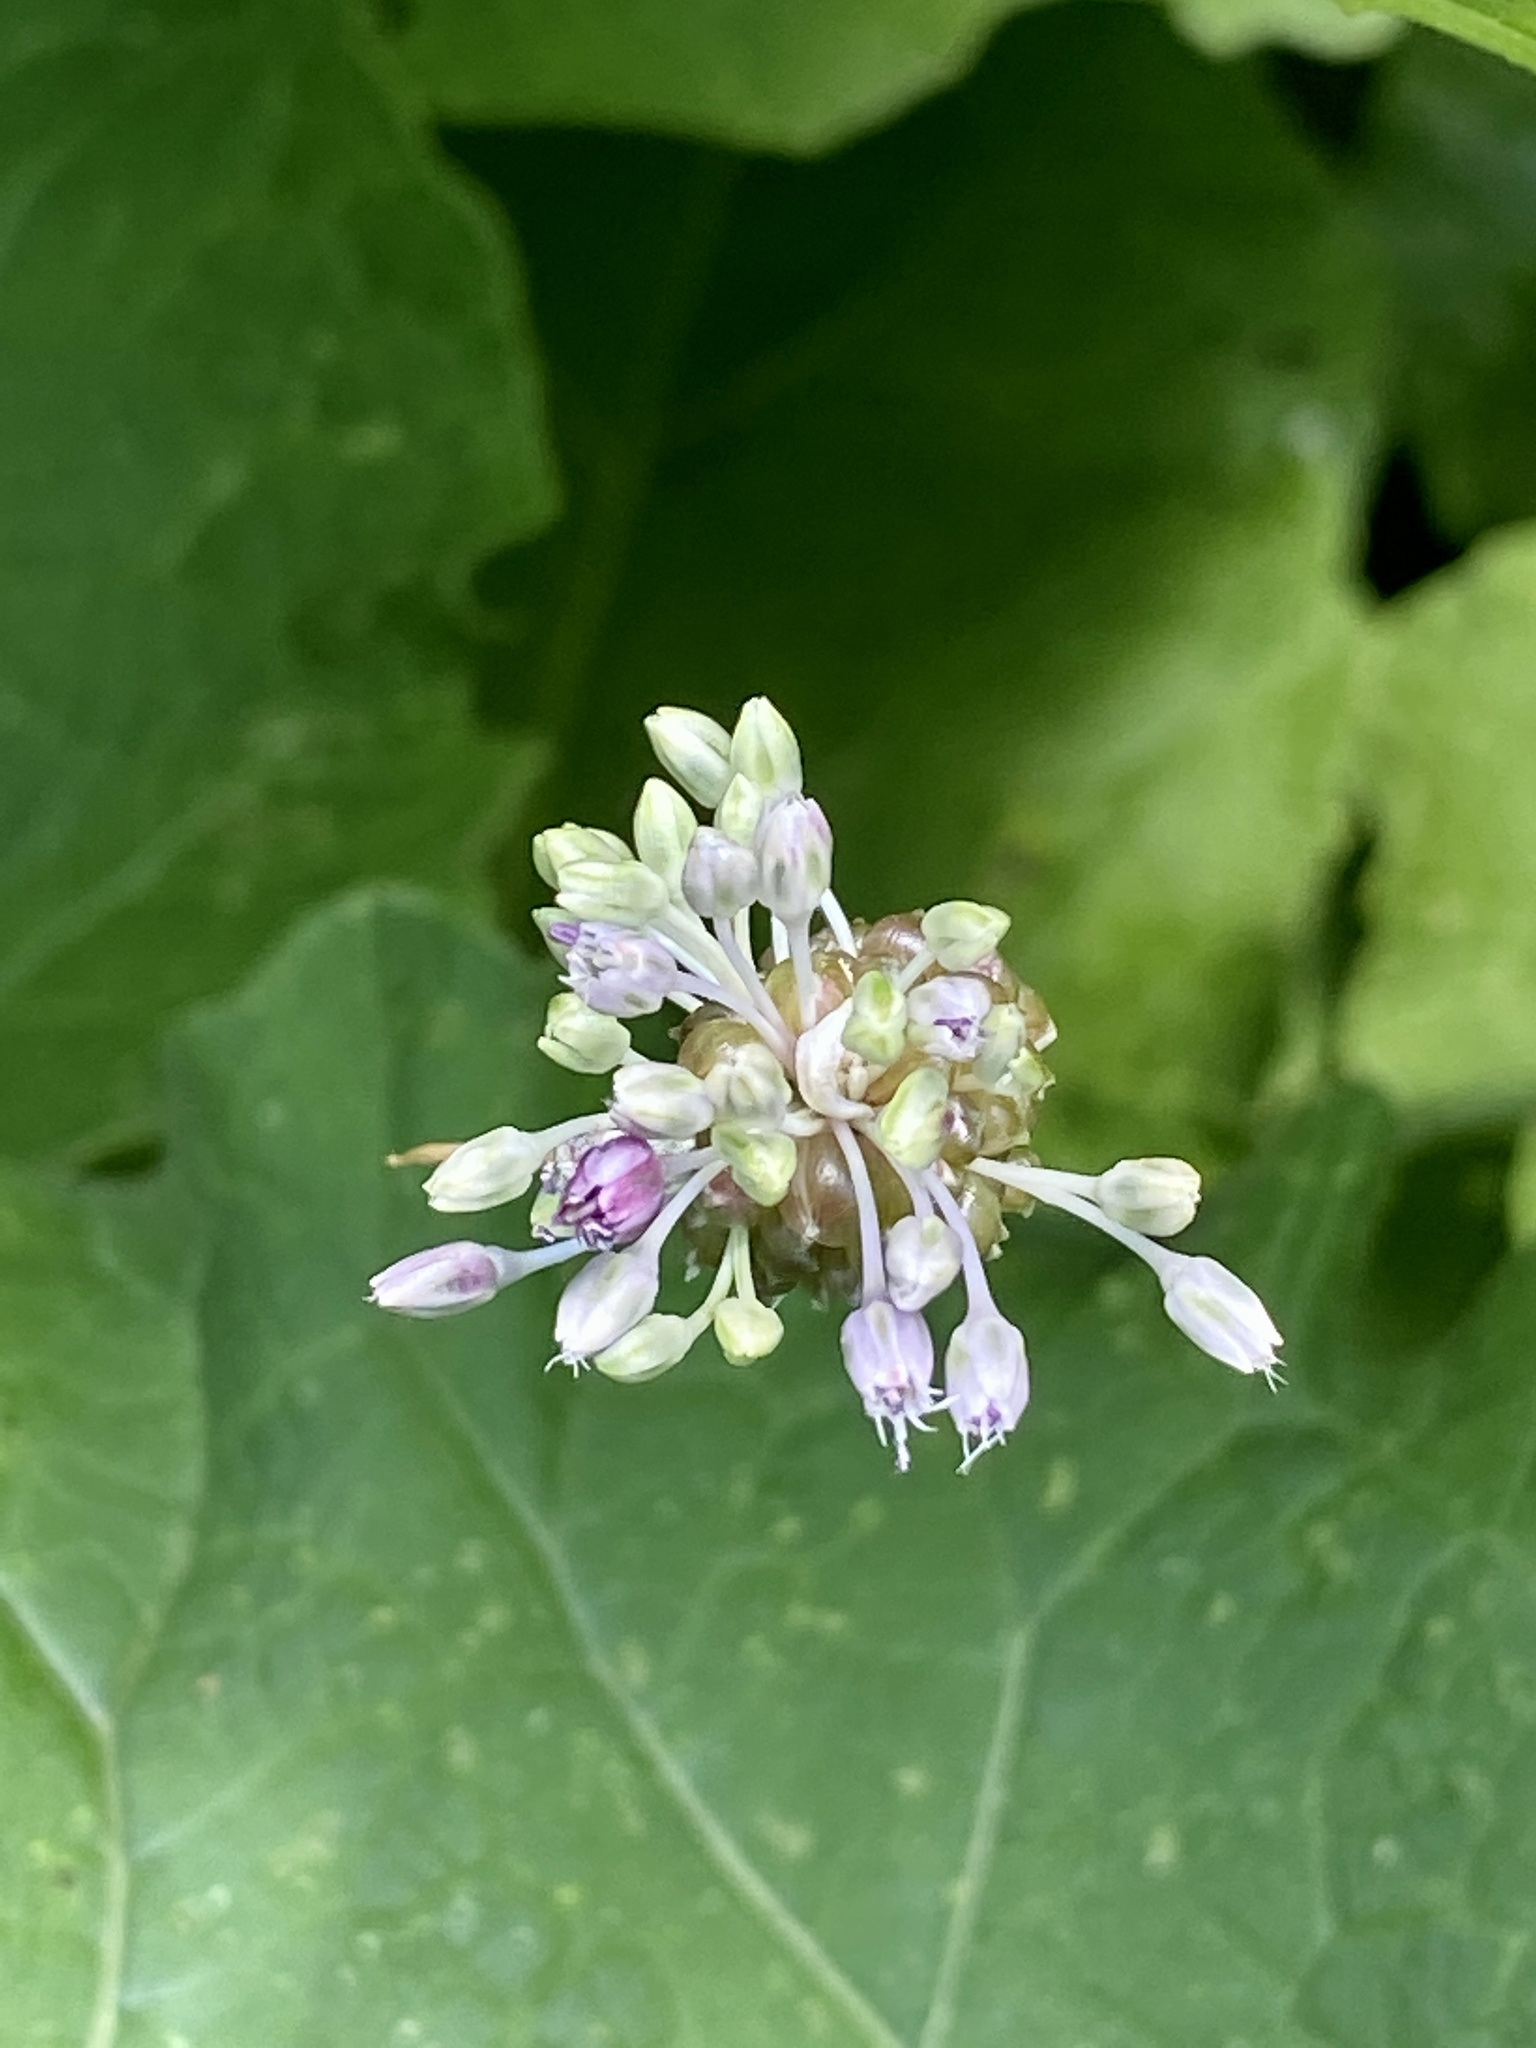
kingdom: Plantae
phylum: Tracheophyta
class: Liliopsida
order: Asparagales
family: Amaryllidaceae
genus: Allium
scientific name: Allium vineale
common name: Crow garlic
